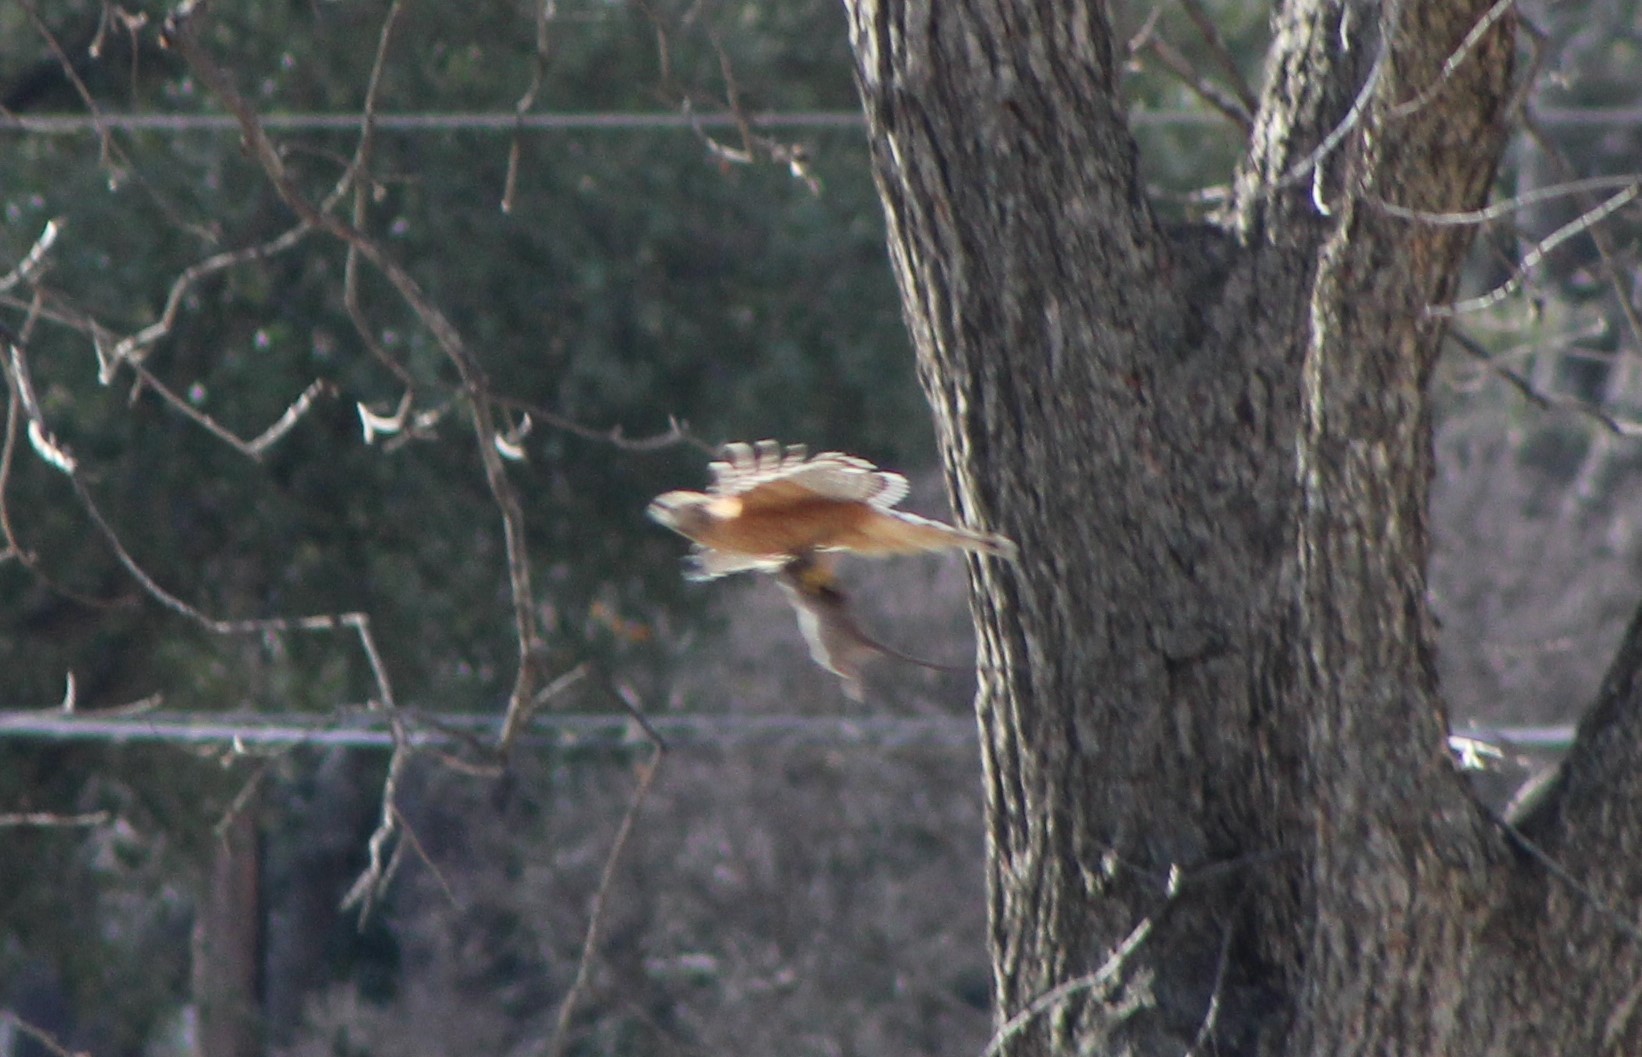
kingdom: Animalia
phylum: Chordata
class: Aves
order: Accipitriformes
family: Accipitridae
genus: Buteo
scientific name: Buteo lineatus
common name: Red-shouldered hawk
